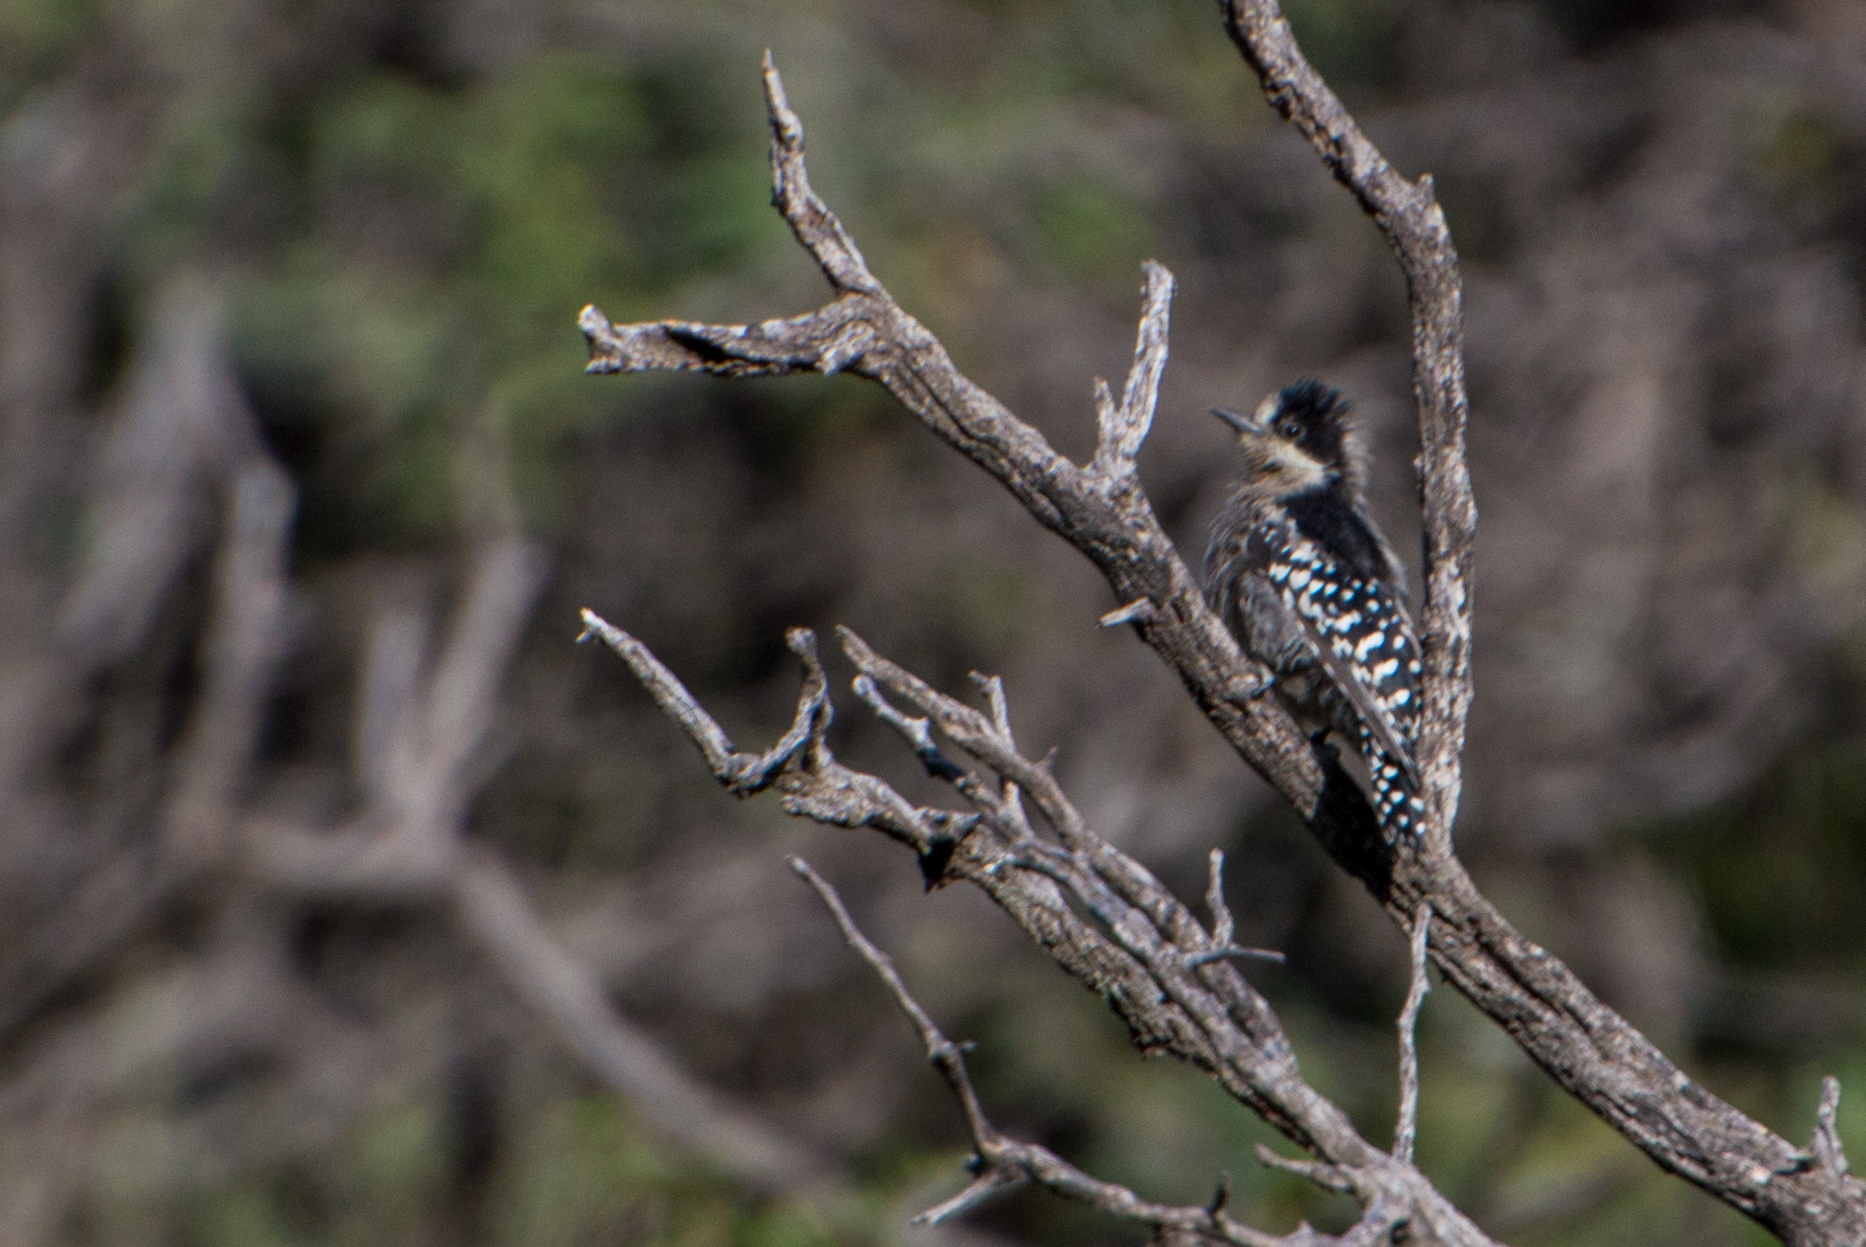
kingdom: Animalia
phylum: Chordata
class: Aves
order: Piciformes
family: Picidae
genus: Melanerpes
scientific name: Melanerpes cactorum
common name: White-fronted woodpecker
